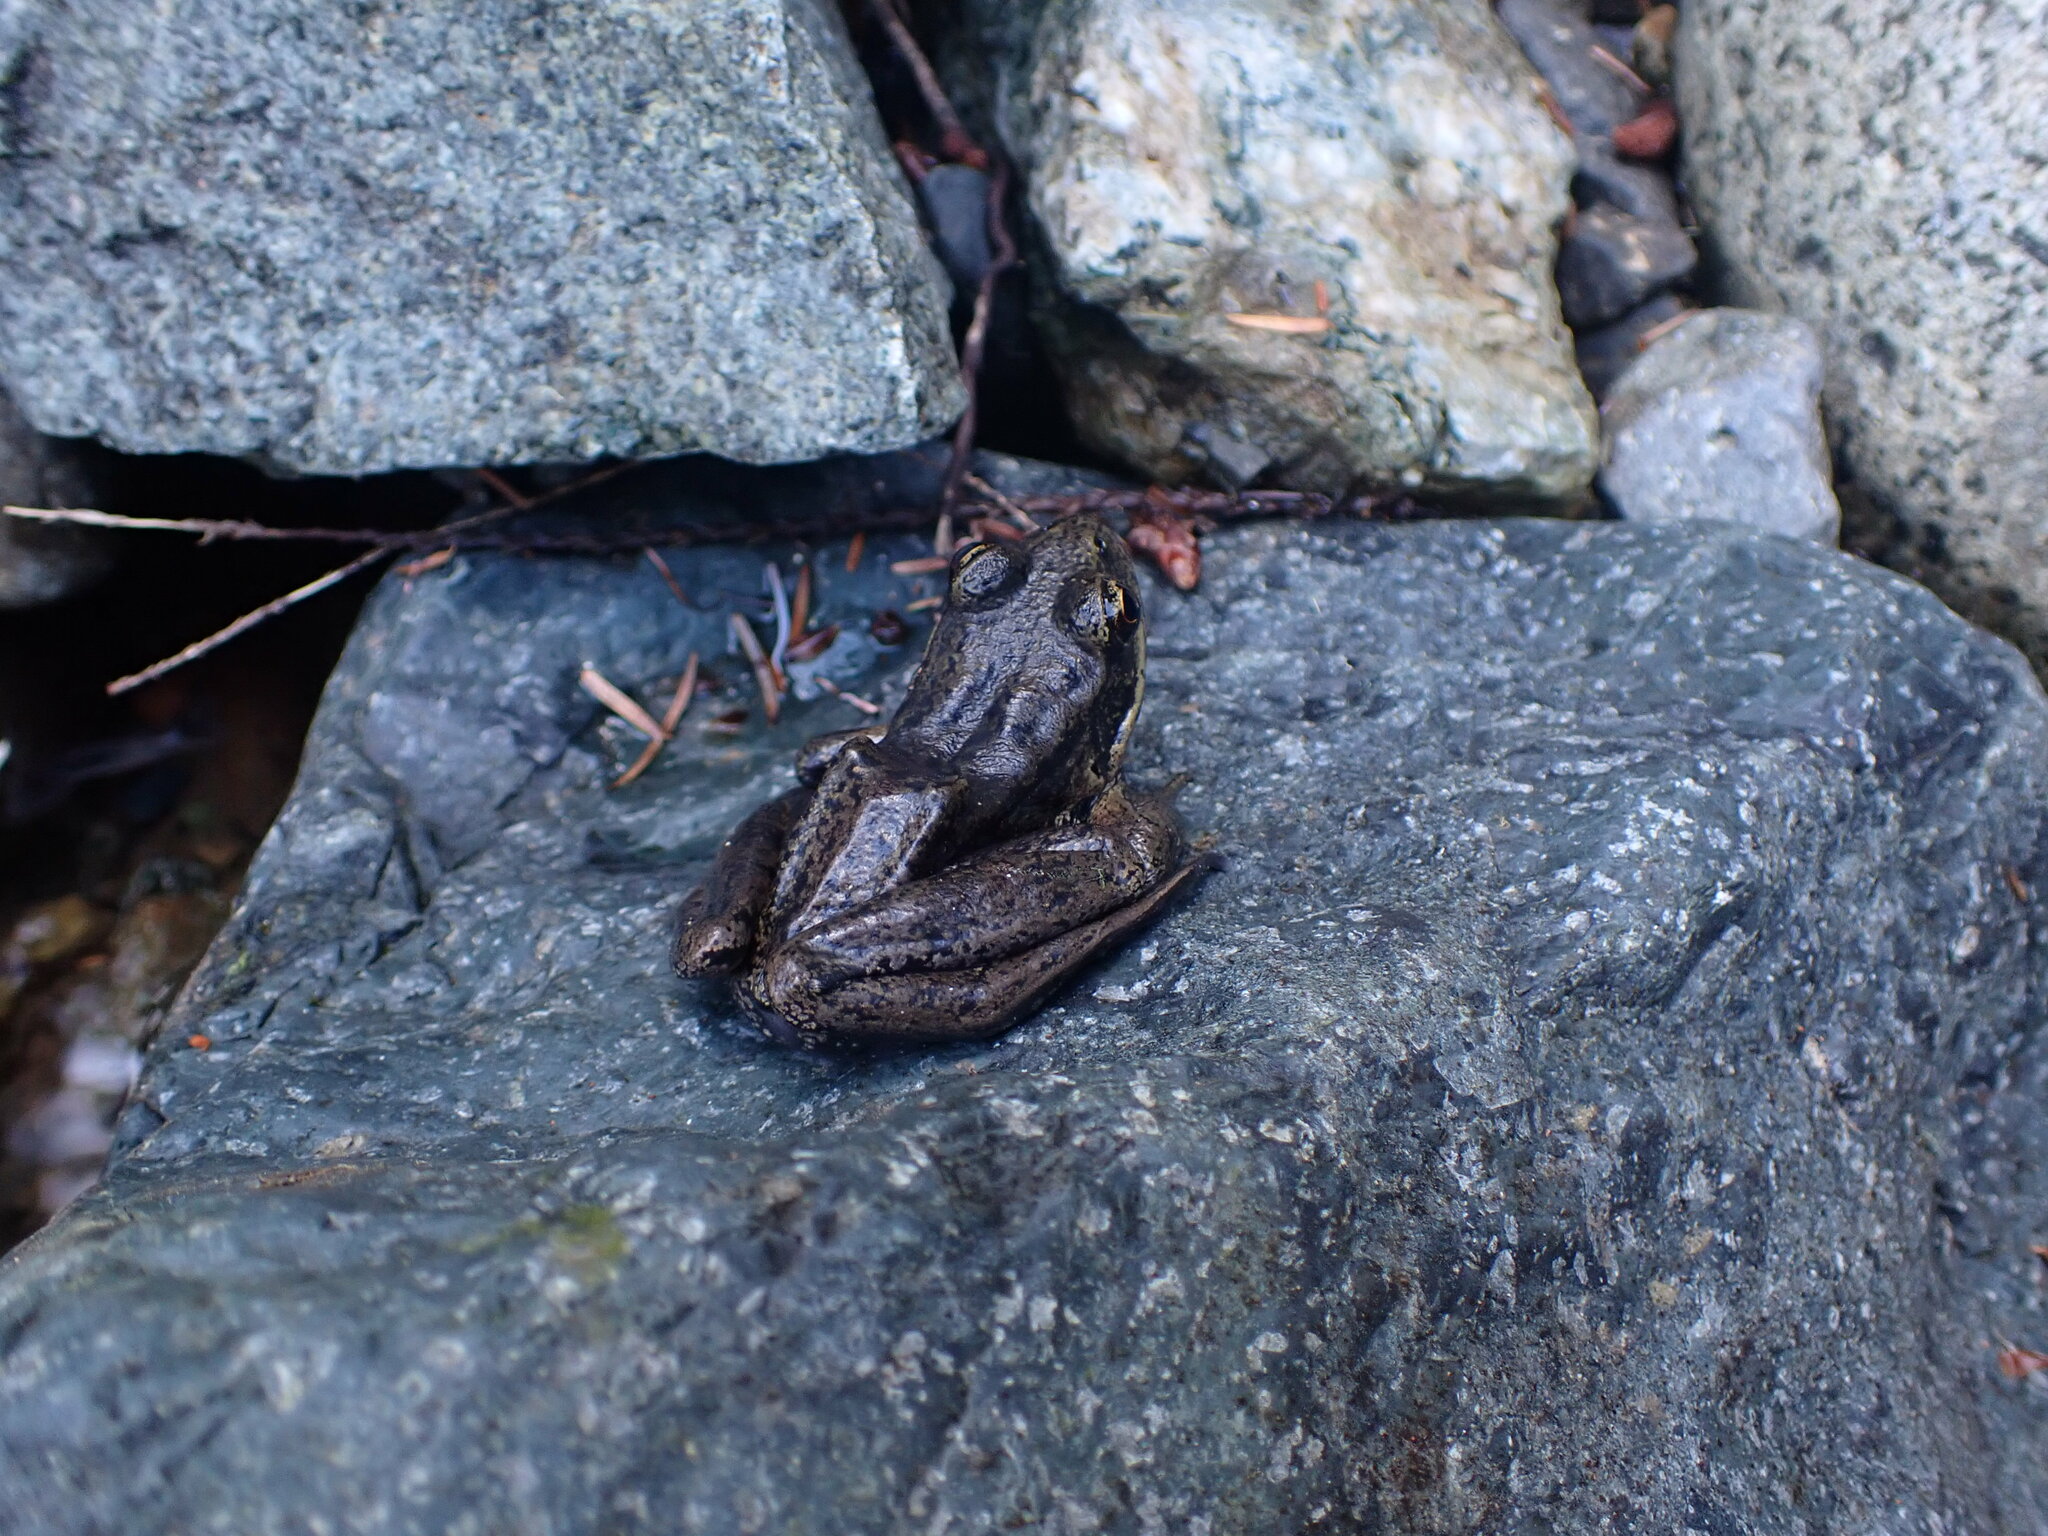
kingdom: Animalia
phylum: Chordata
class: Amphibia
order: Anura
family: Ranidae
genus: Rana
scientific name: Rana aurora
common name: Red-legged frog
